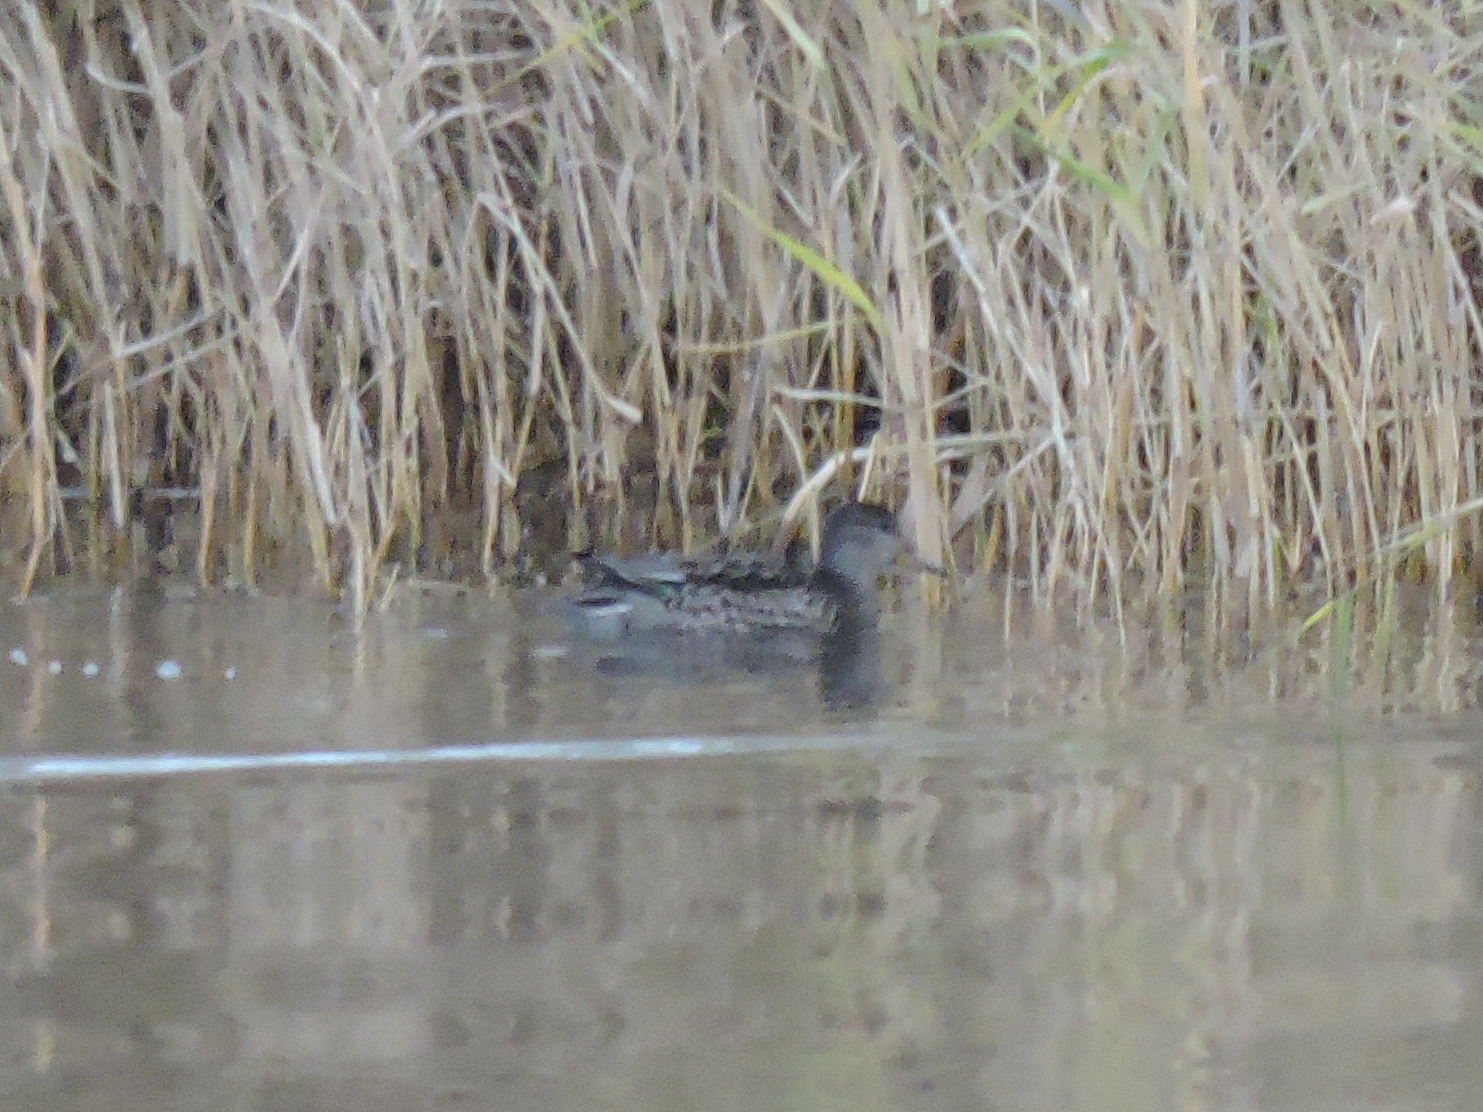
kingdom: Animalia
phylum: Chordata
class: Aves
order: Anseriformes
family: Anatidae
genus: Anas
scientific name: Anas crecca
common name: Eurasian teal
